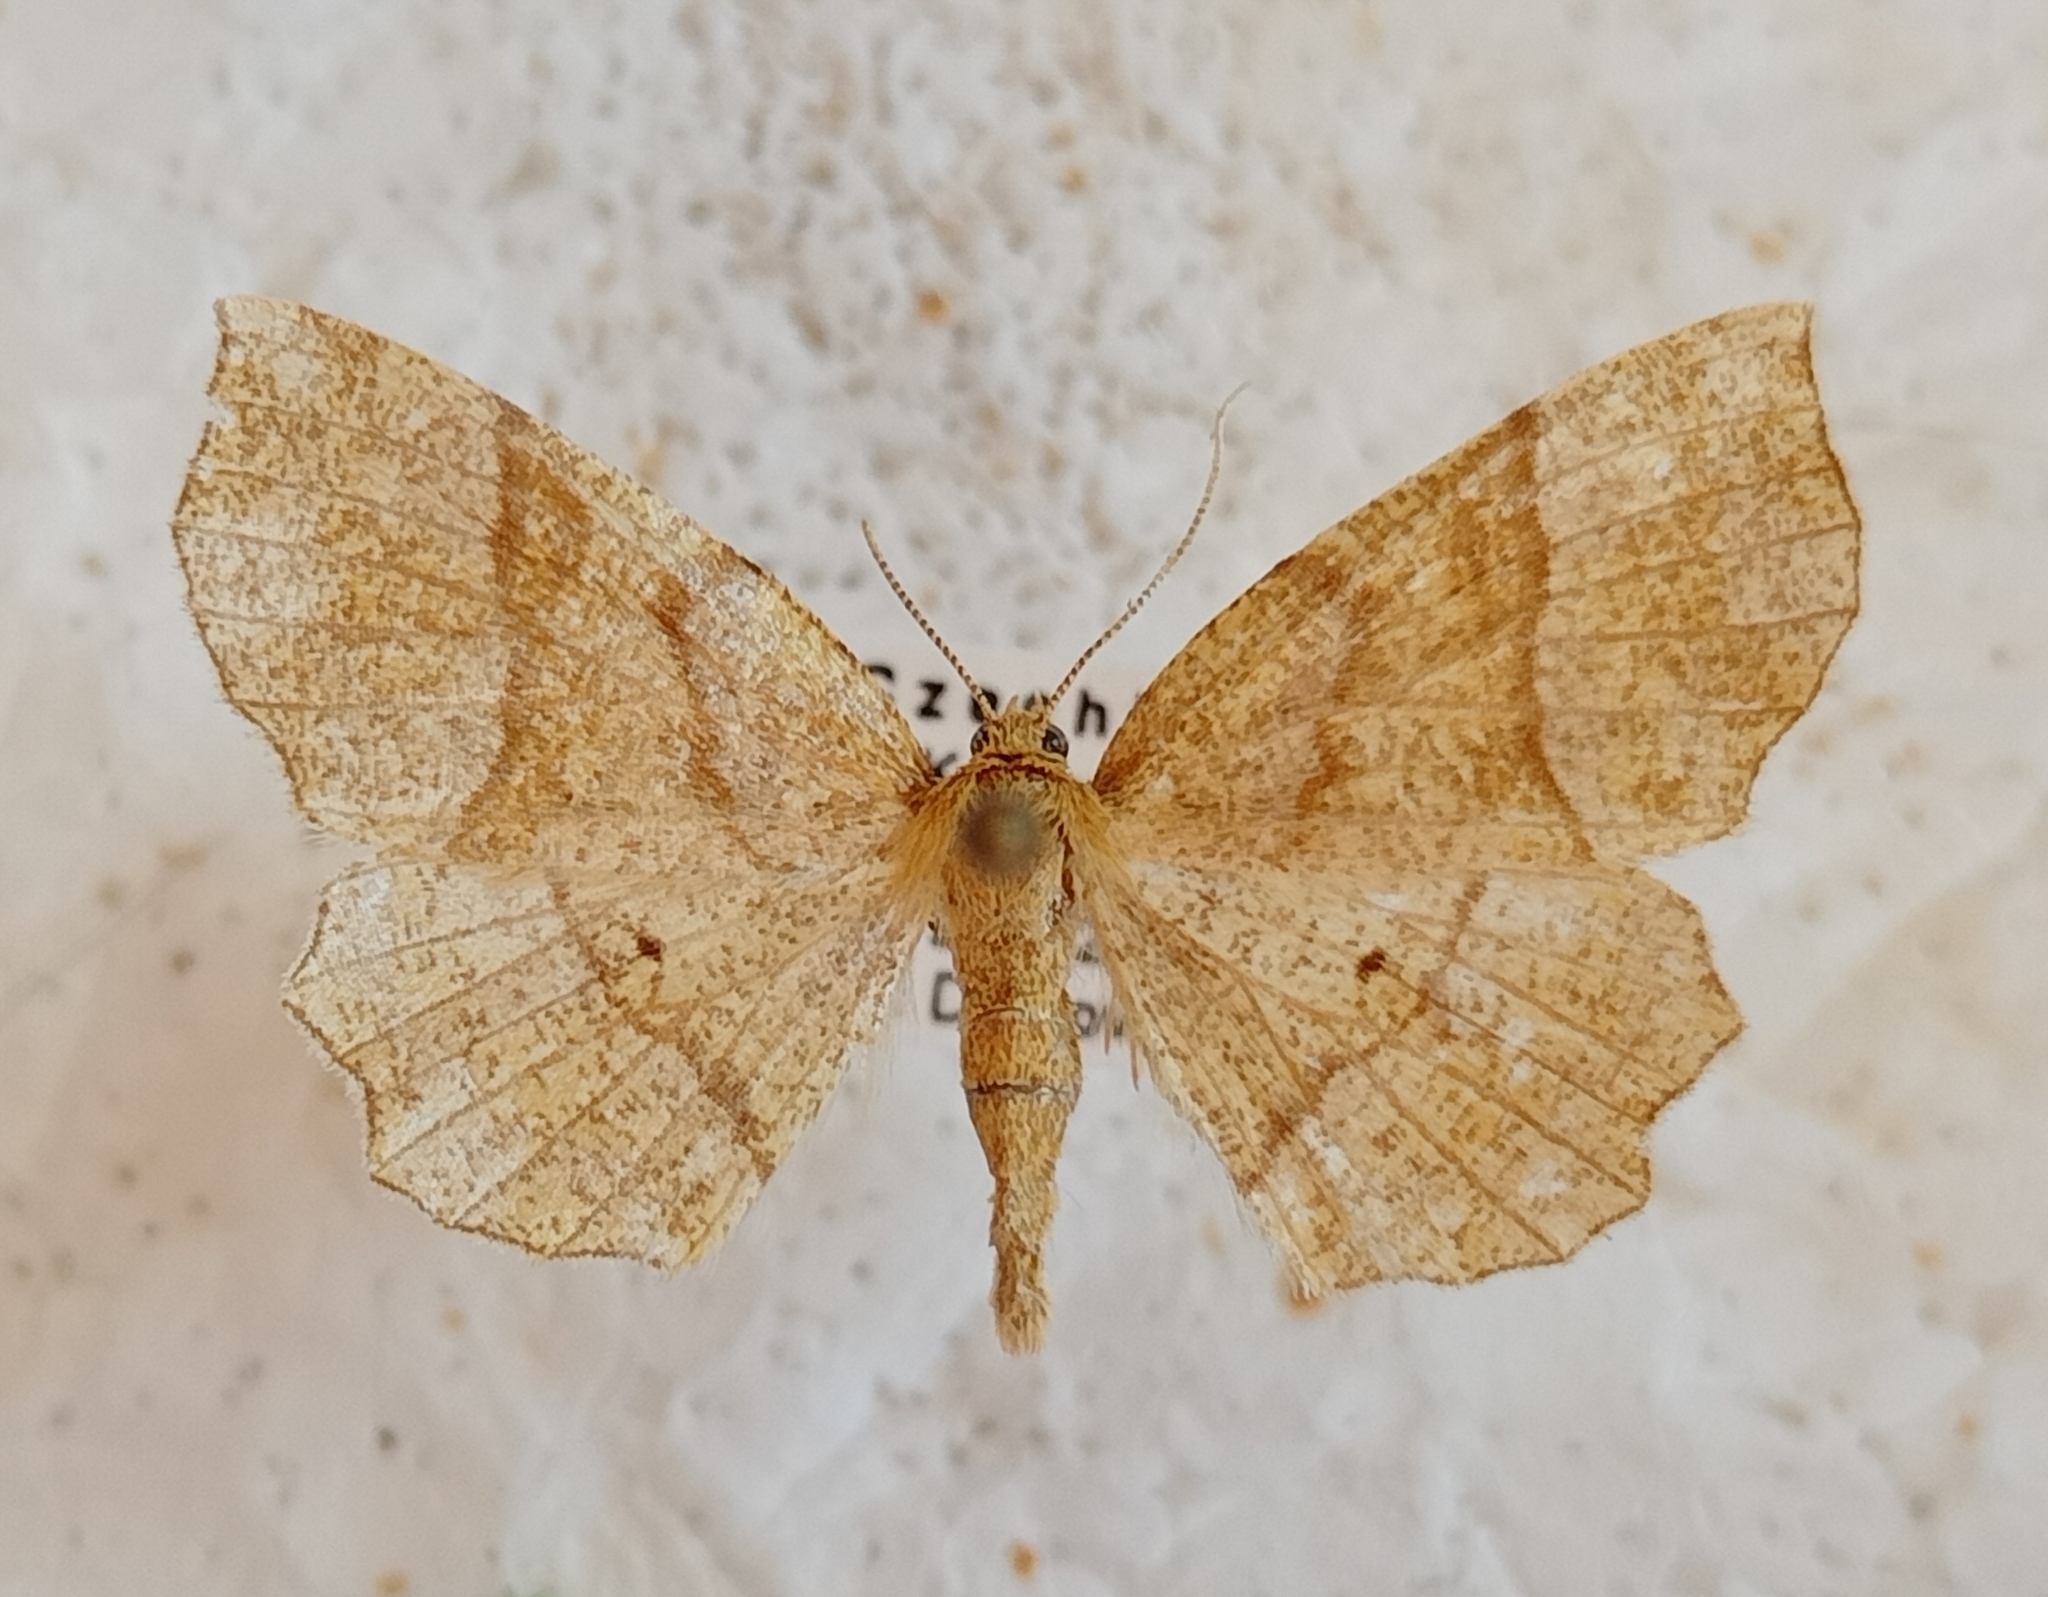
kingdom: Animalia
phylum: Arthropoda
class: Insecta
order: Lepidoptera
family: Geometridae
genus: Cepphis
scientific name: Cepphis advenaria
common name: Little thorn
